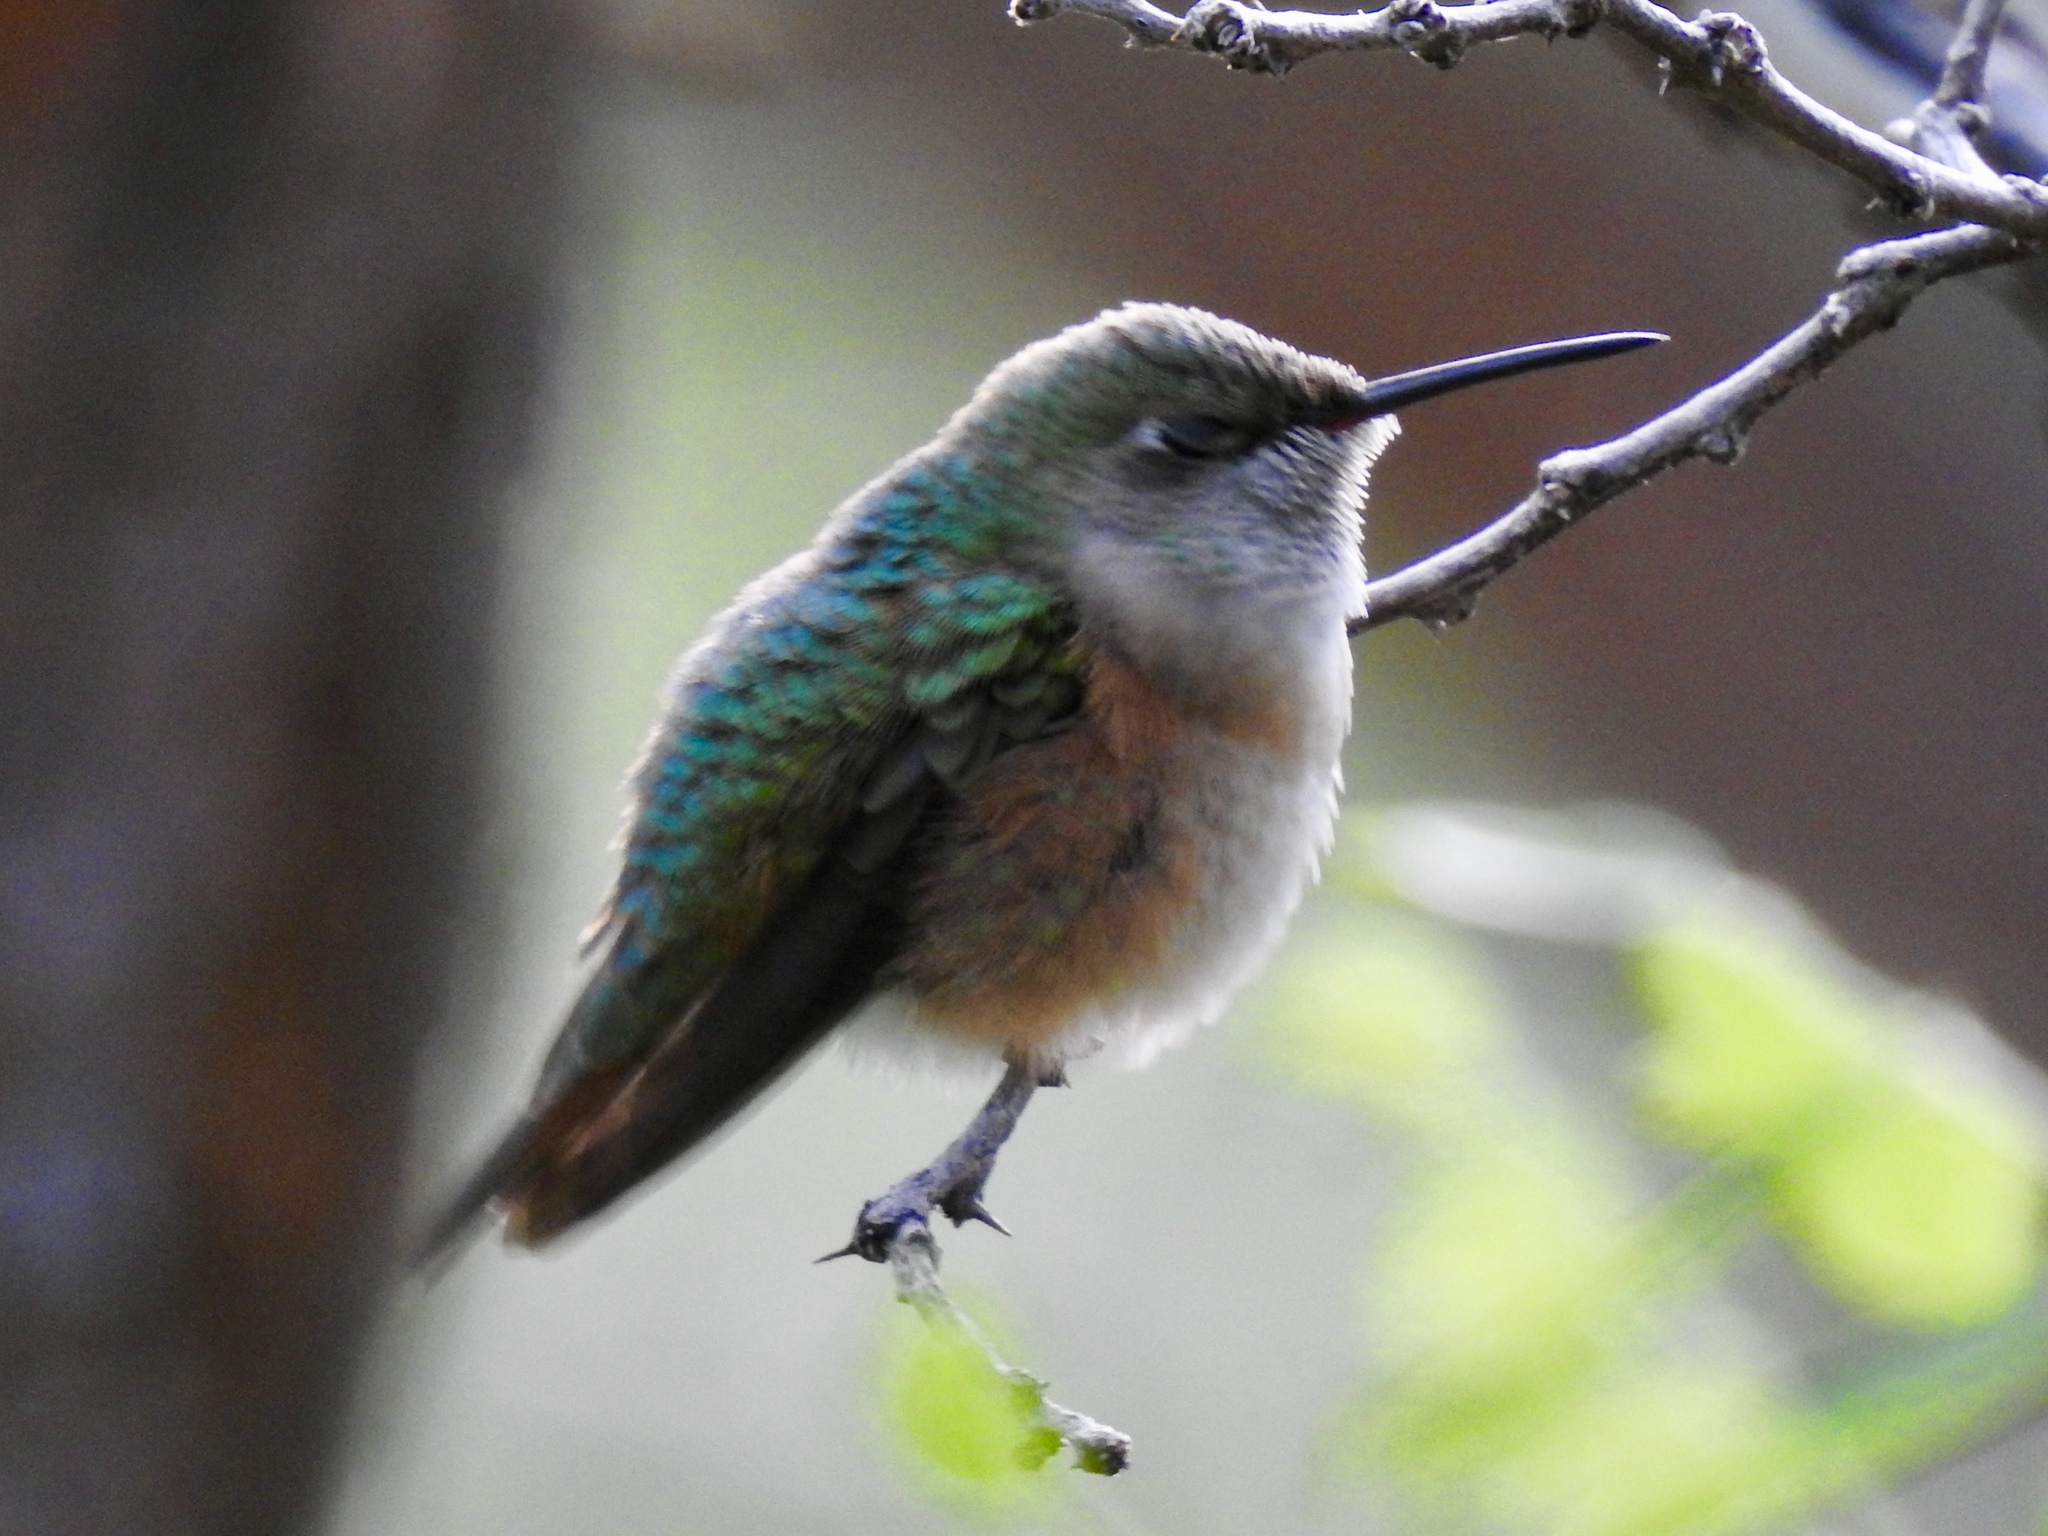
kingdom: Animalia
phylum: Chordata
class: Aves
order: Apodiformes
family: Trochilidae
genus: Selasphorus
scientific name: Selasphorus platycercus
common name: Broad-tailed hummingbird
